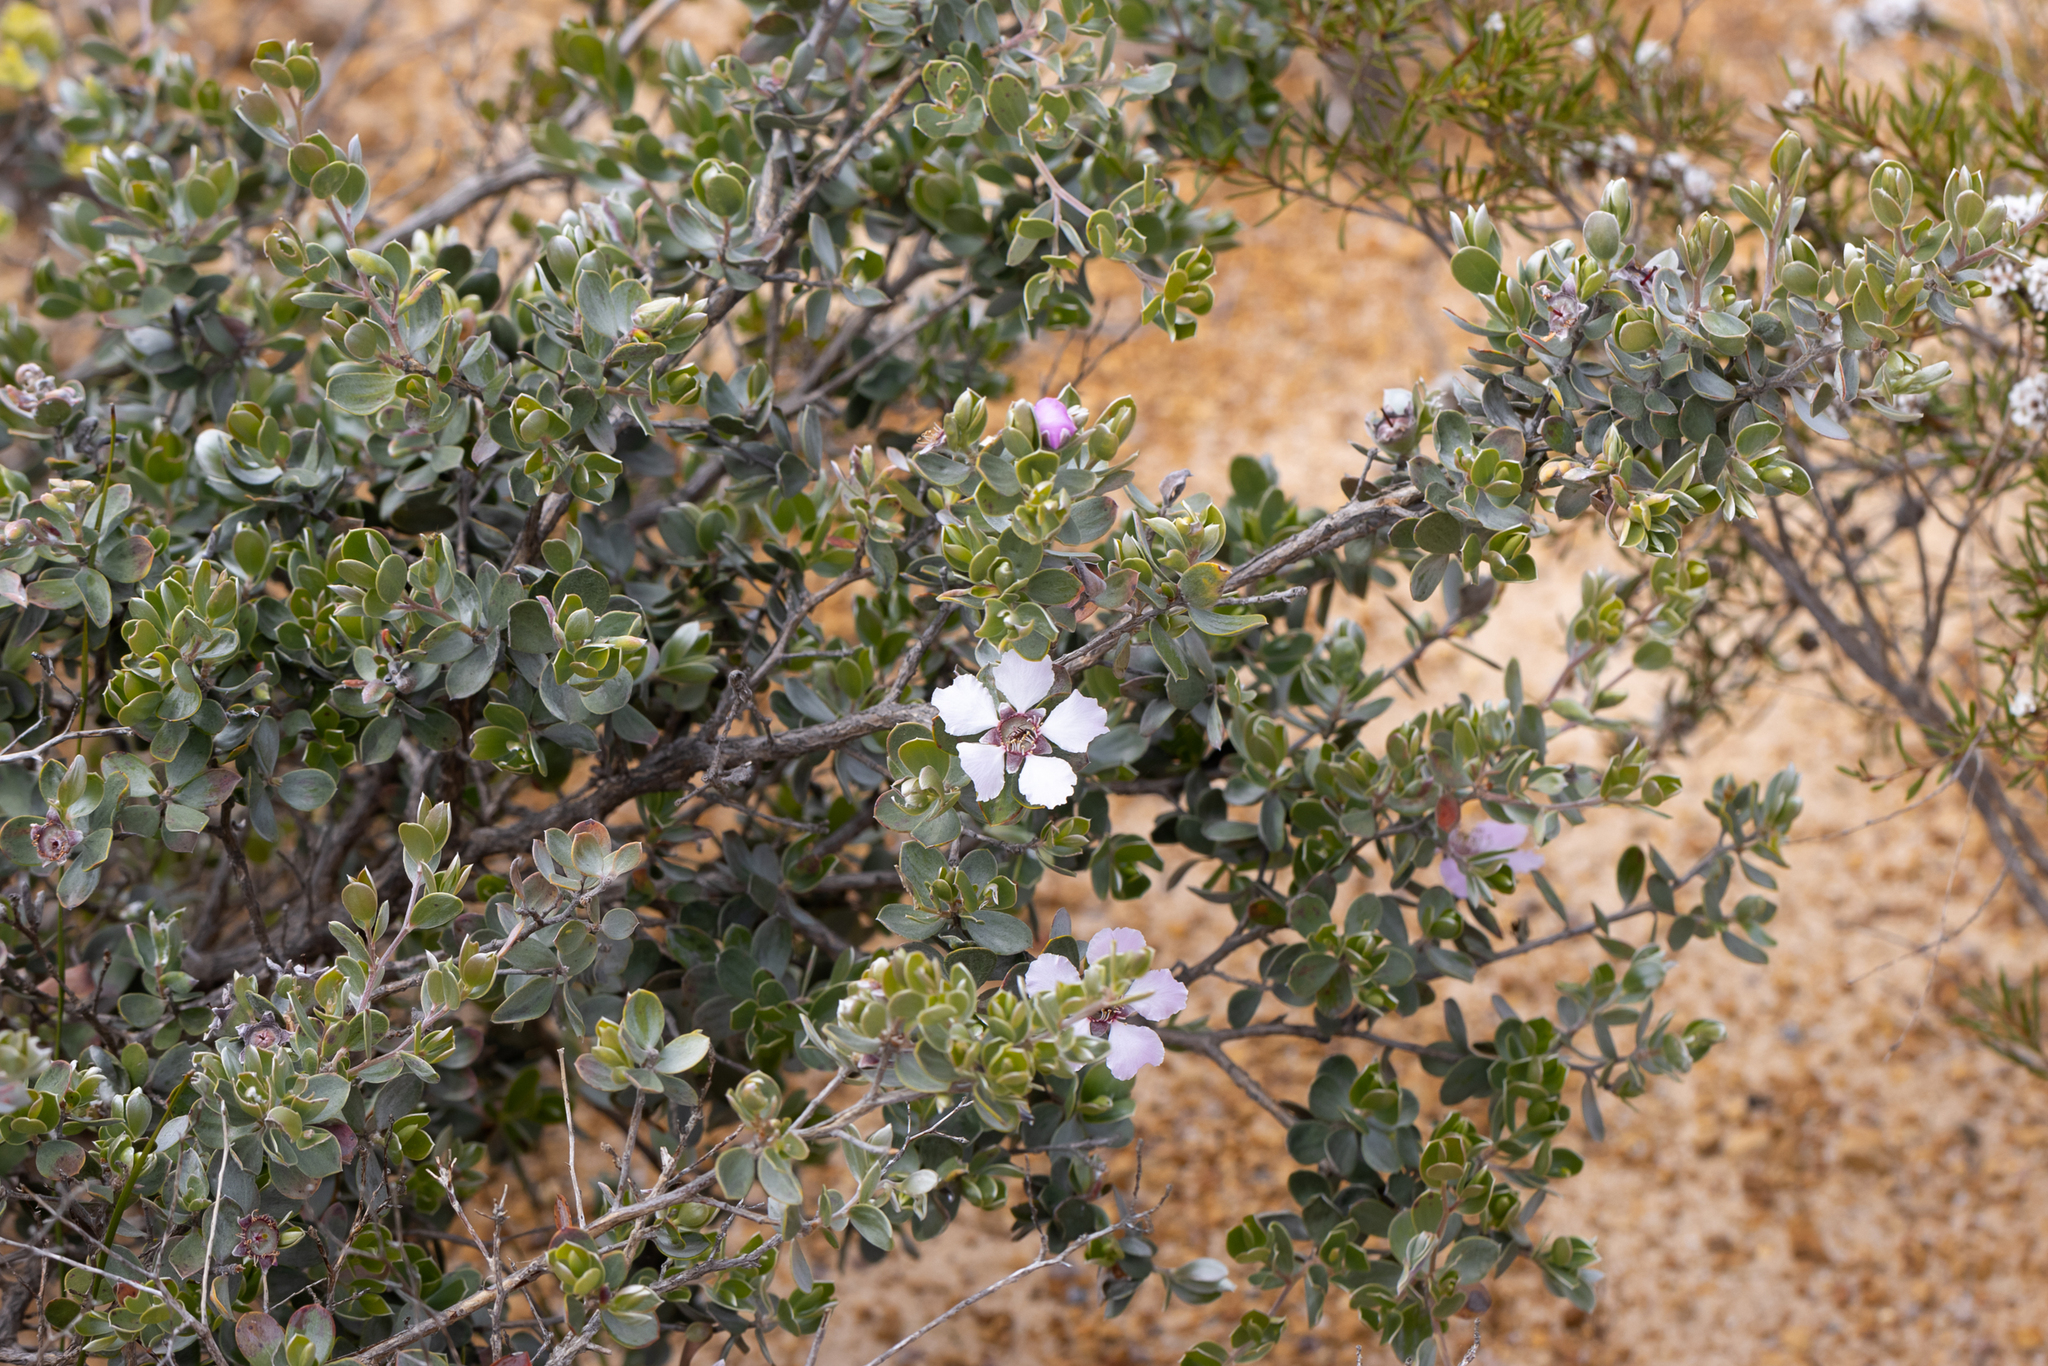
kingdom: Plantae
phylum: Tracheophyta
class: Magnoliopsida
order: Myrtales
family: Myrtaceae
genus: Leptospermum
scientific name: Leptospermum sericeum
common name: Swamp teatree
